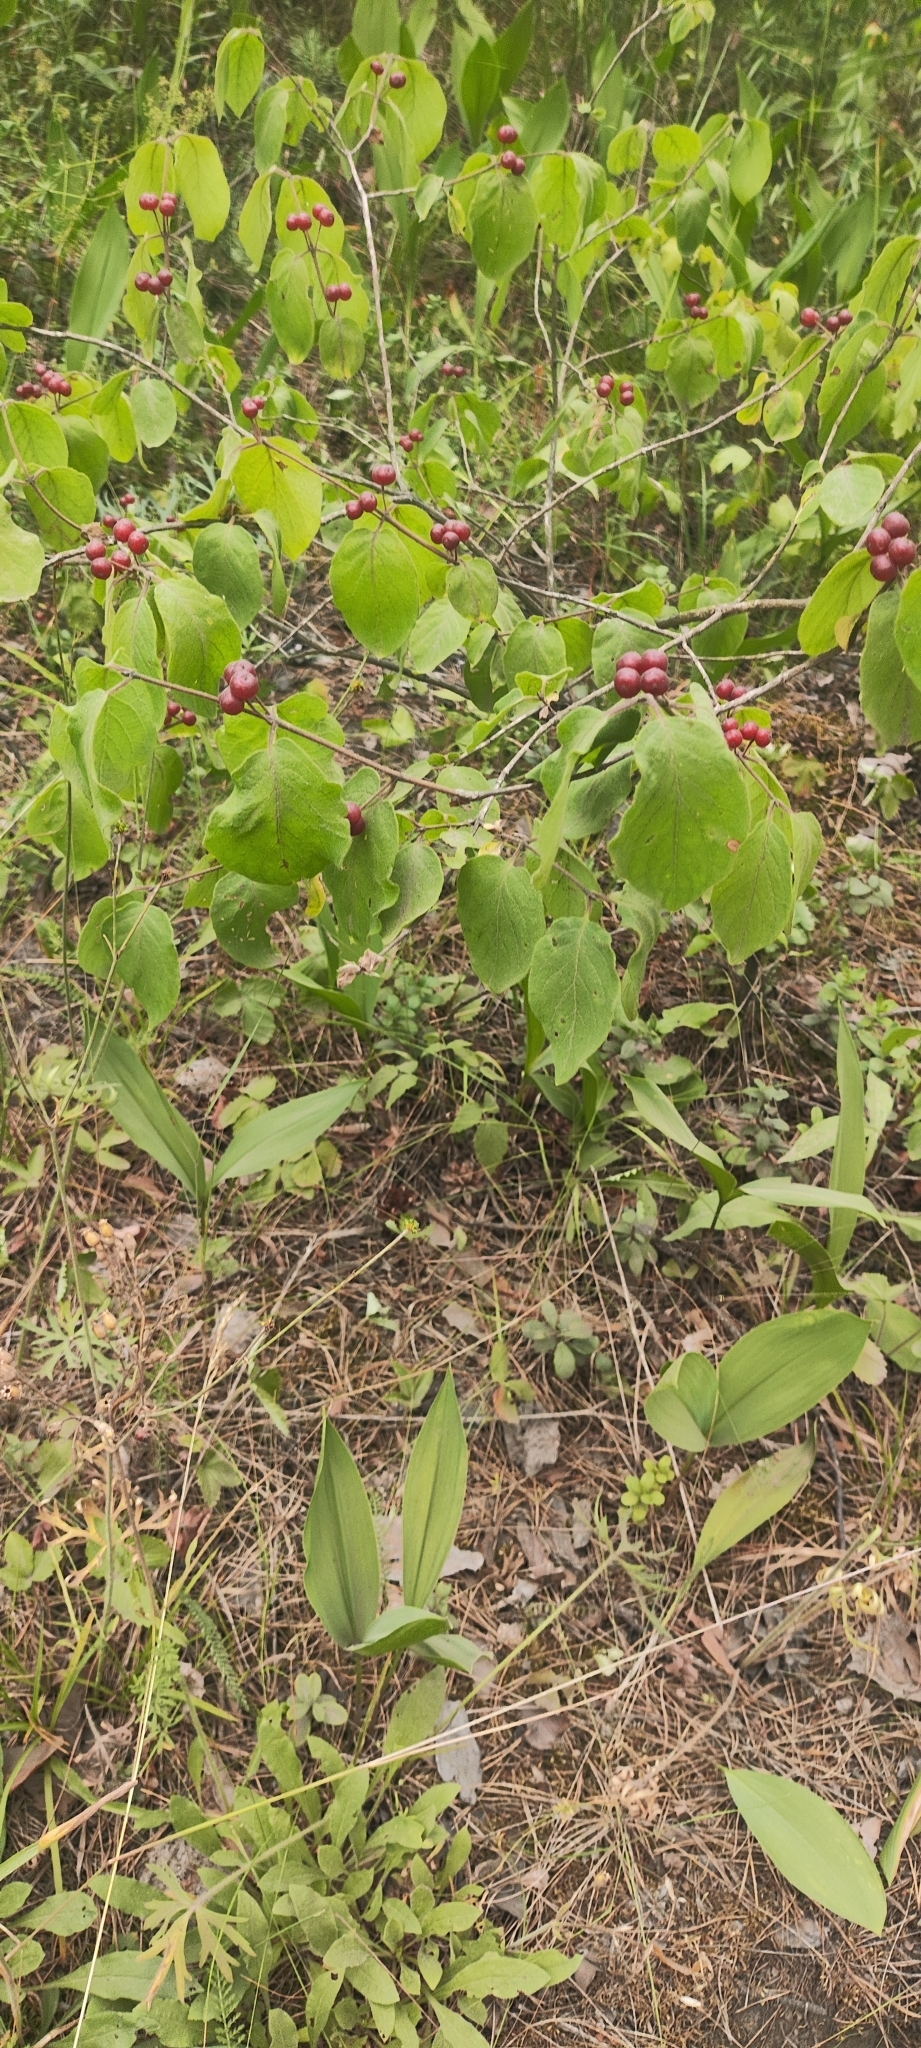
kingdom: Plantae
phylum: Tracheophyta
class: Magnoliopsida
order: Dipsacales
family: Caprifoliaceae
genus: Lonicera
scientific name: Lonicera xylosteum
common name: Fly honeysuckle
